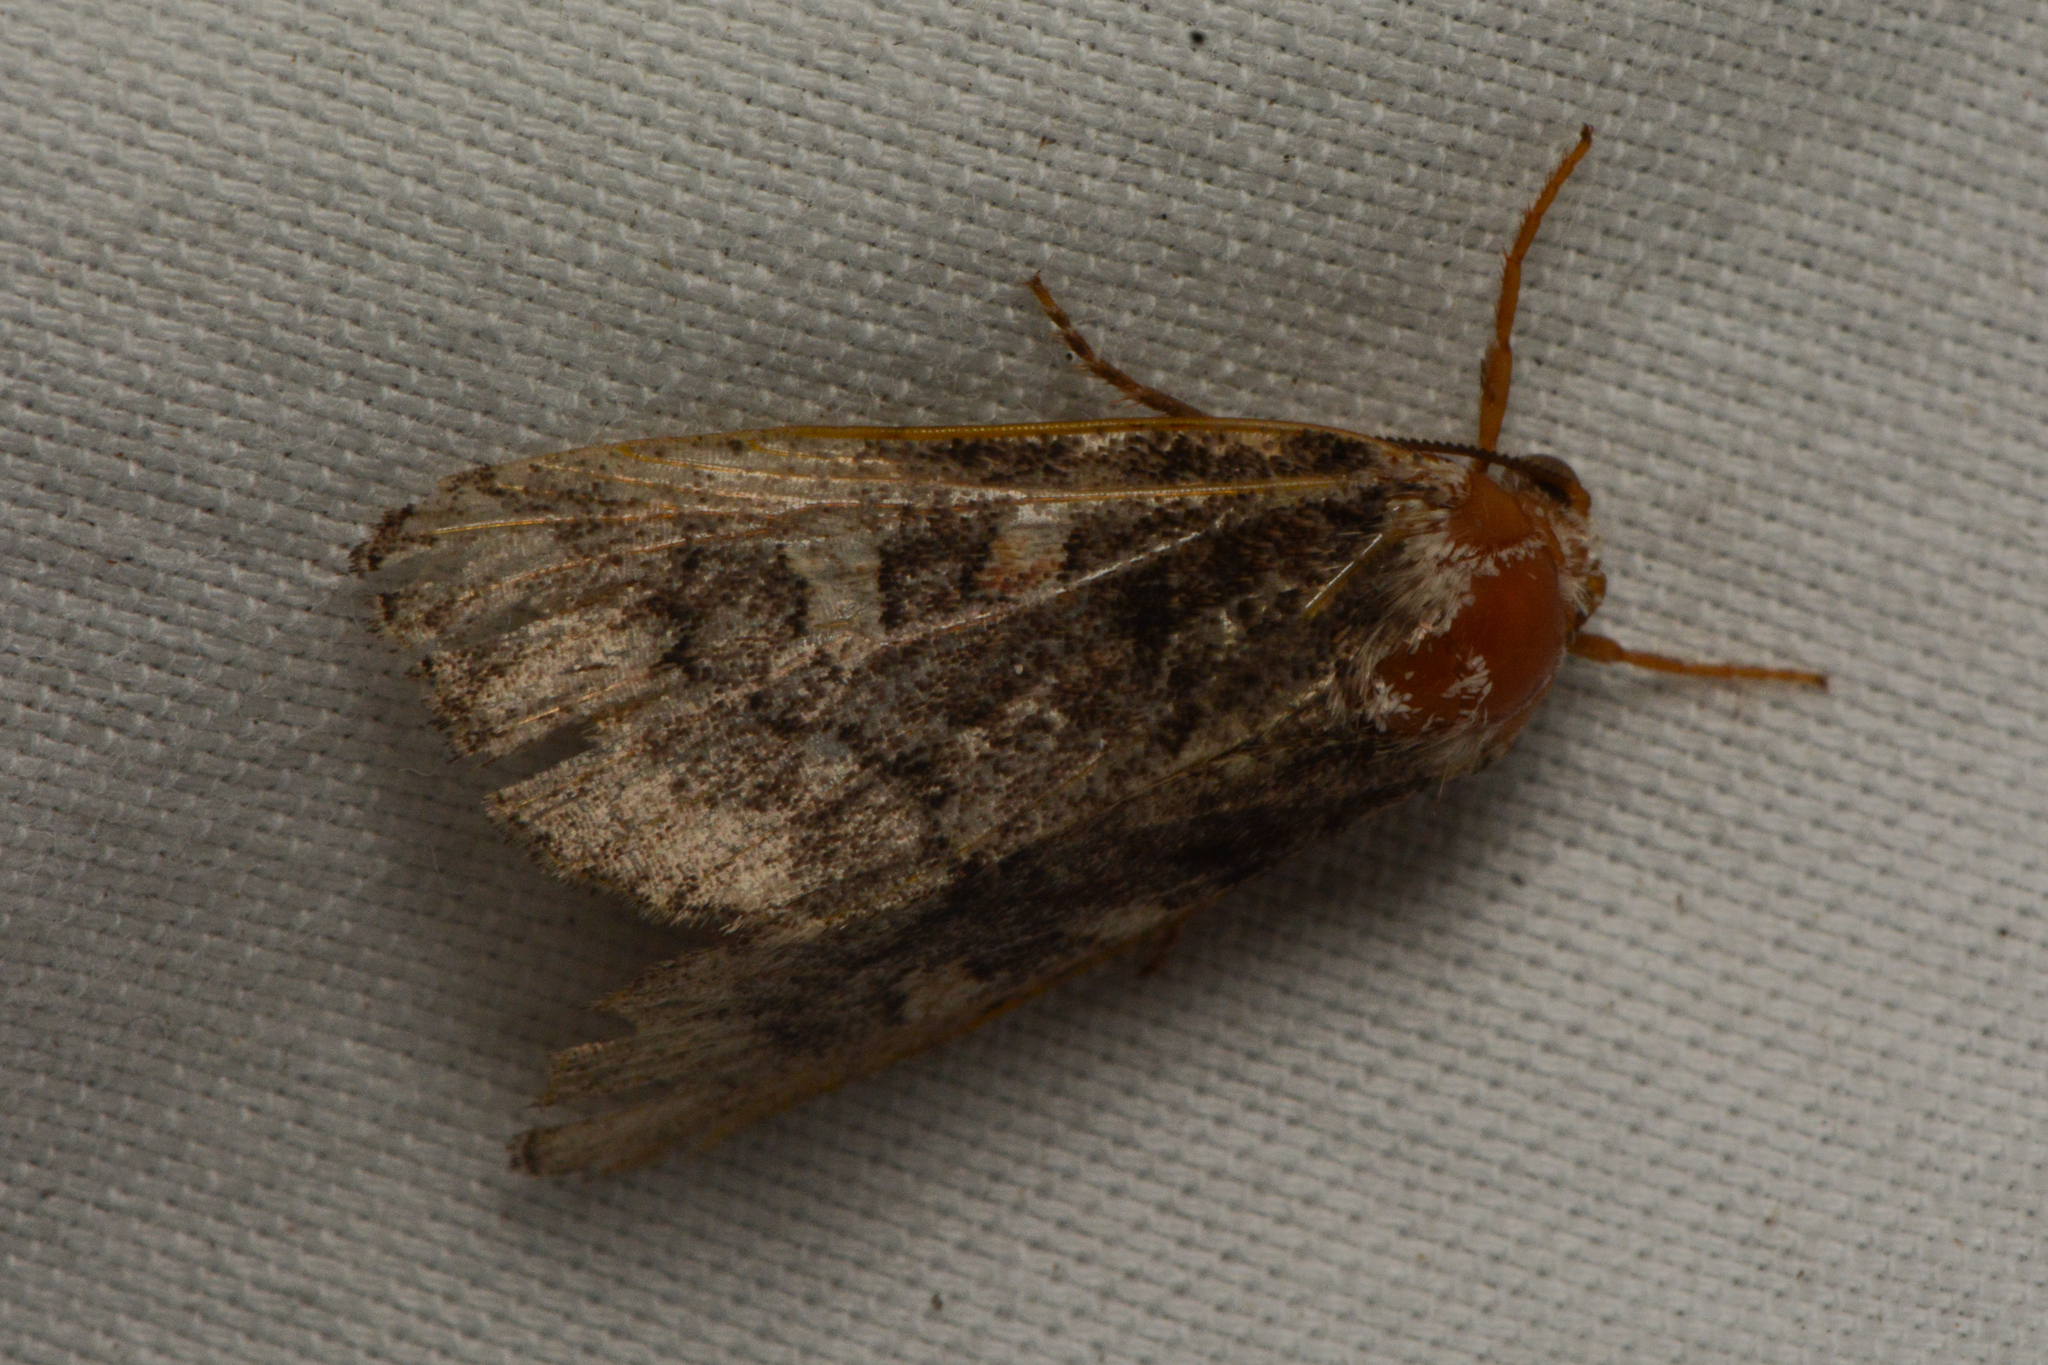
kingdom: Animalia
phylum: Arthropoda
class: Insecta
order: Lepidoptera
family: Noctuidae
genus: Cosmia
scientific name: Cosmia praeacuta
